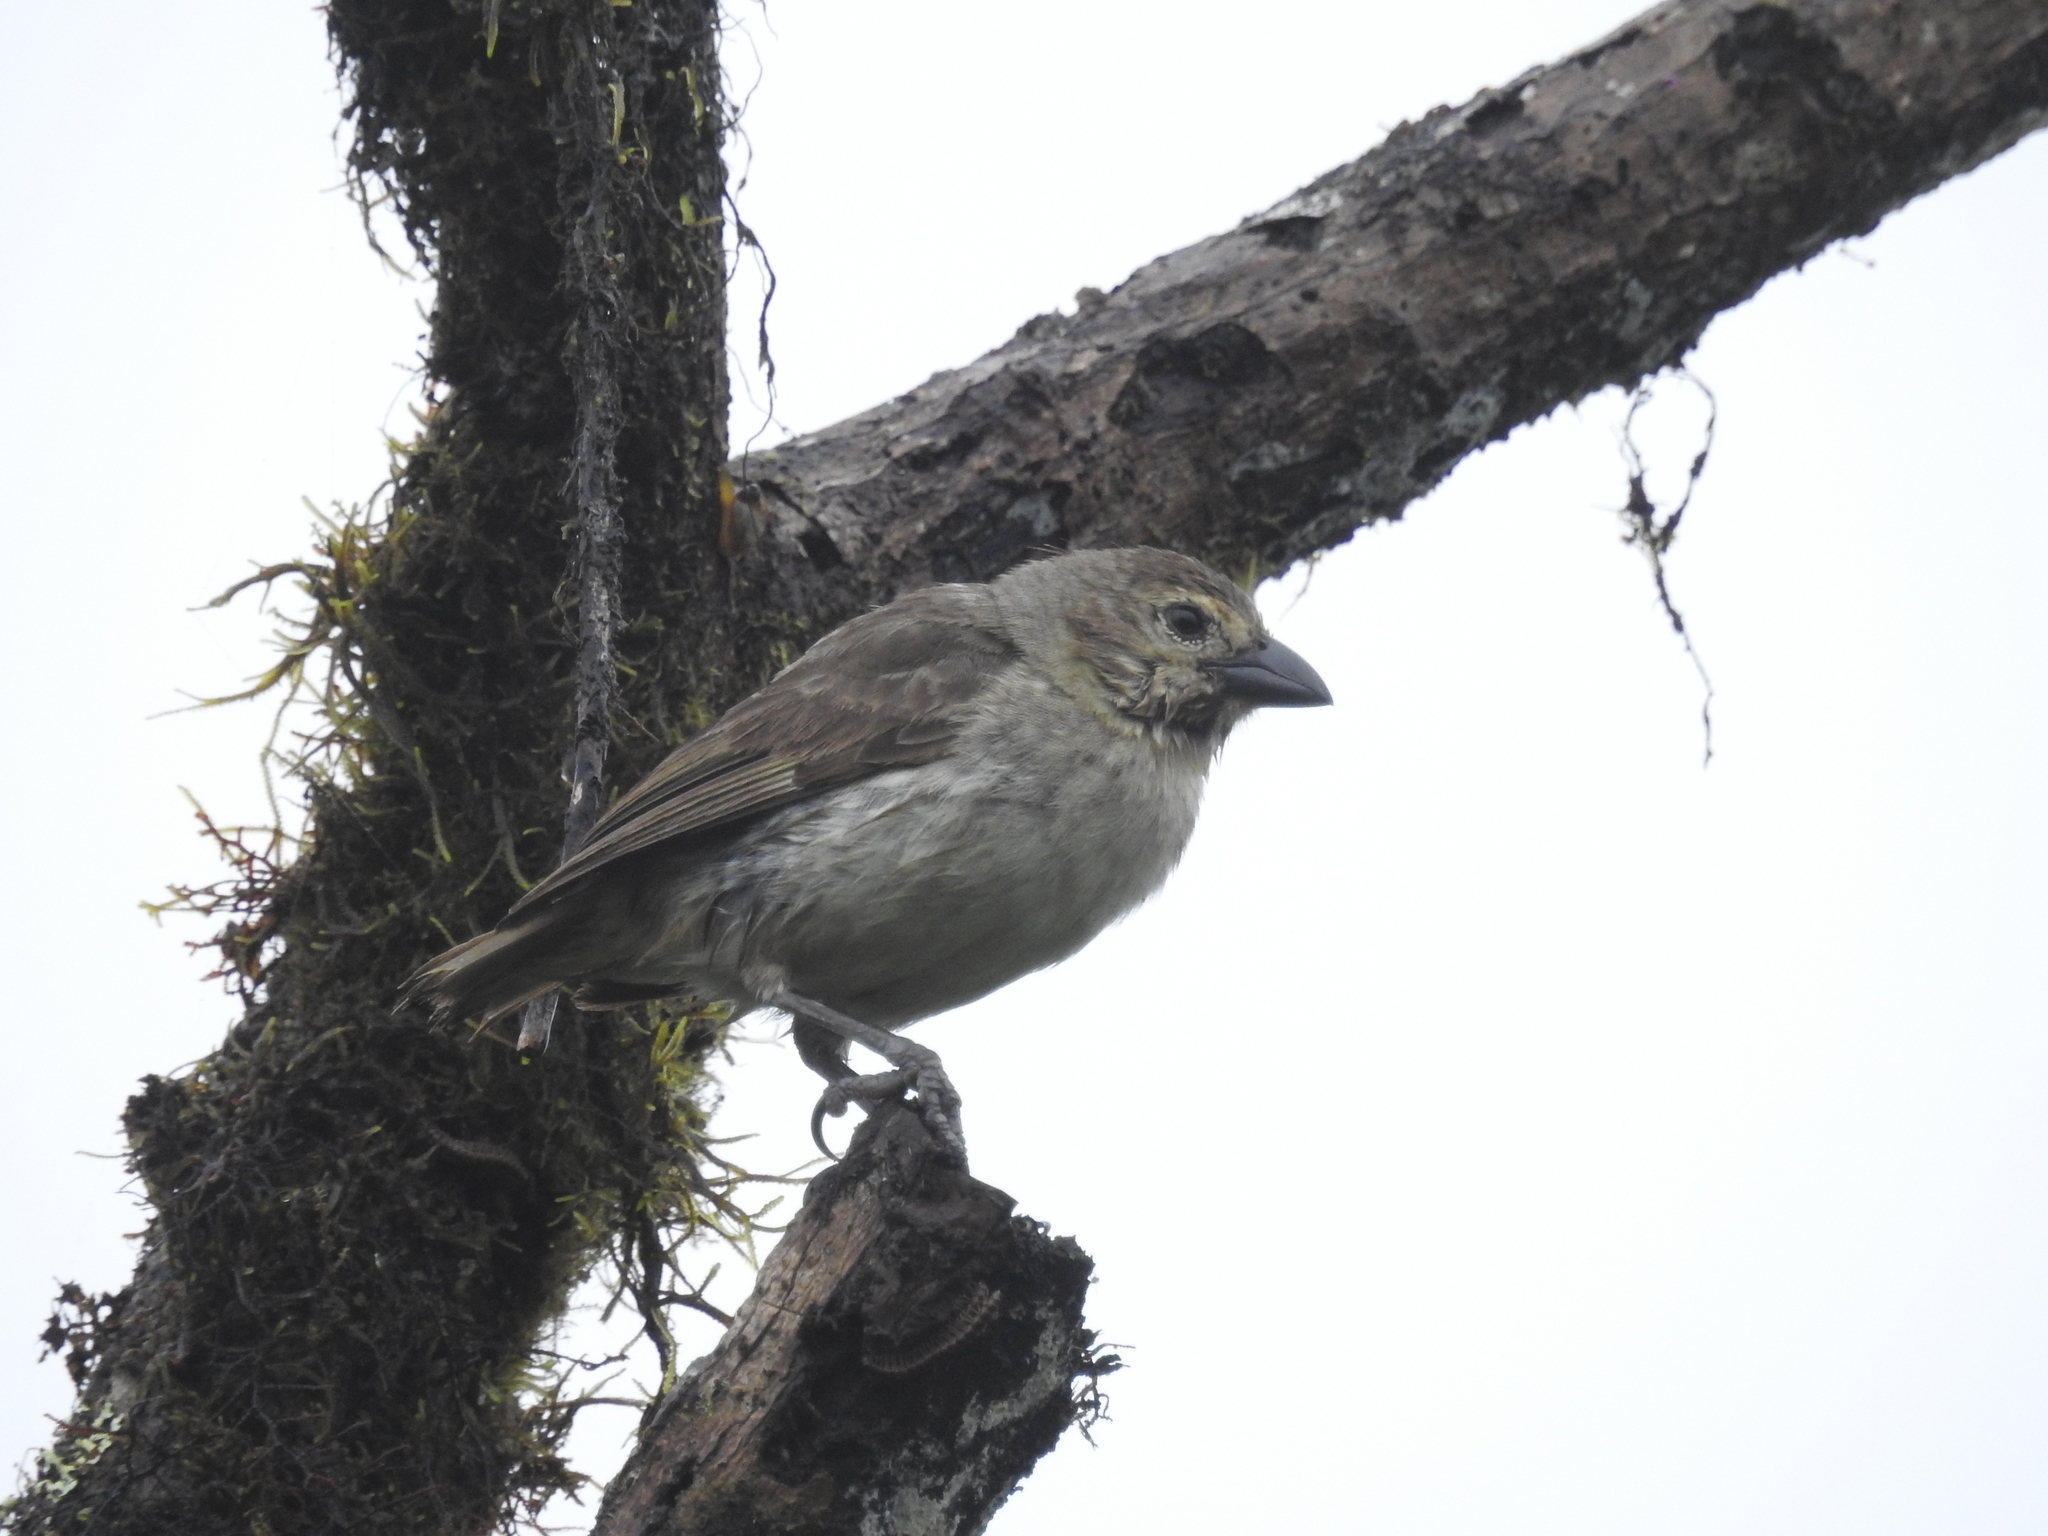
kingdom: Animalia
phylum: Chordata
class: Aves
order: Passeriformes
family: Thraupidae
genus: Camarhynchus
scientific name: Camarhynchus pallidus
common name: Woodpecker finch
